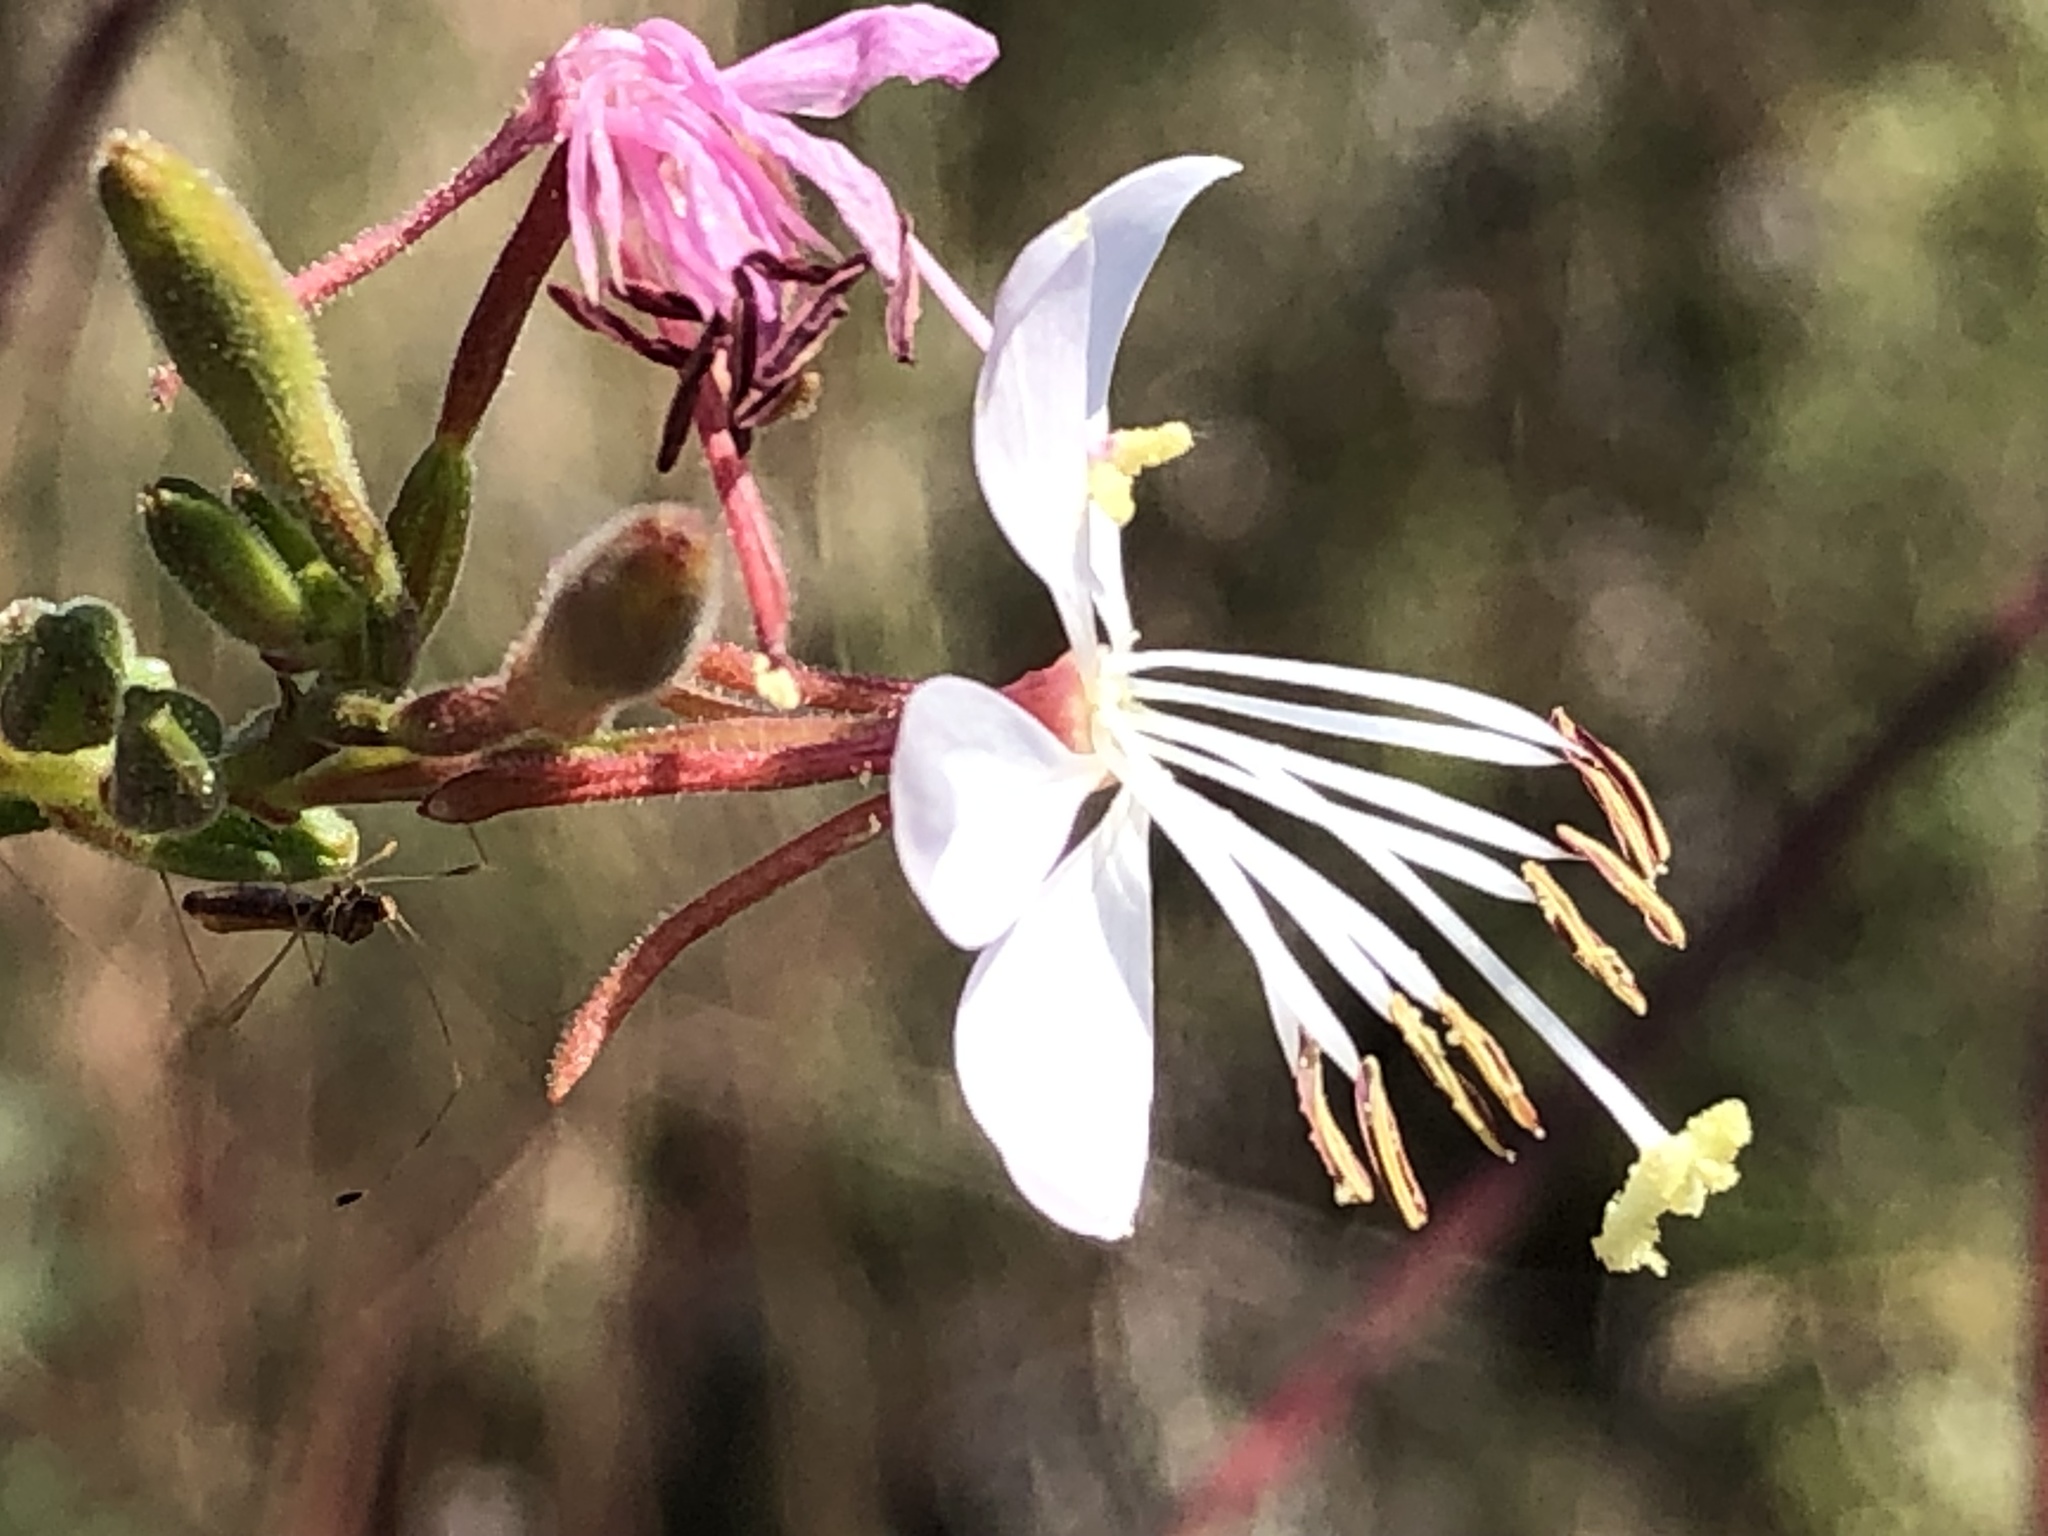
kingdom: Plantae
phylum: Tracheophyta
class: Magnoliopsida
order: Myrtales
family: Onagraceae
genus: Oenothera
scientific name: Oenothera gaura
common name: Biennial beeblossom
